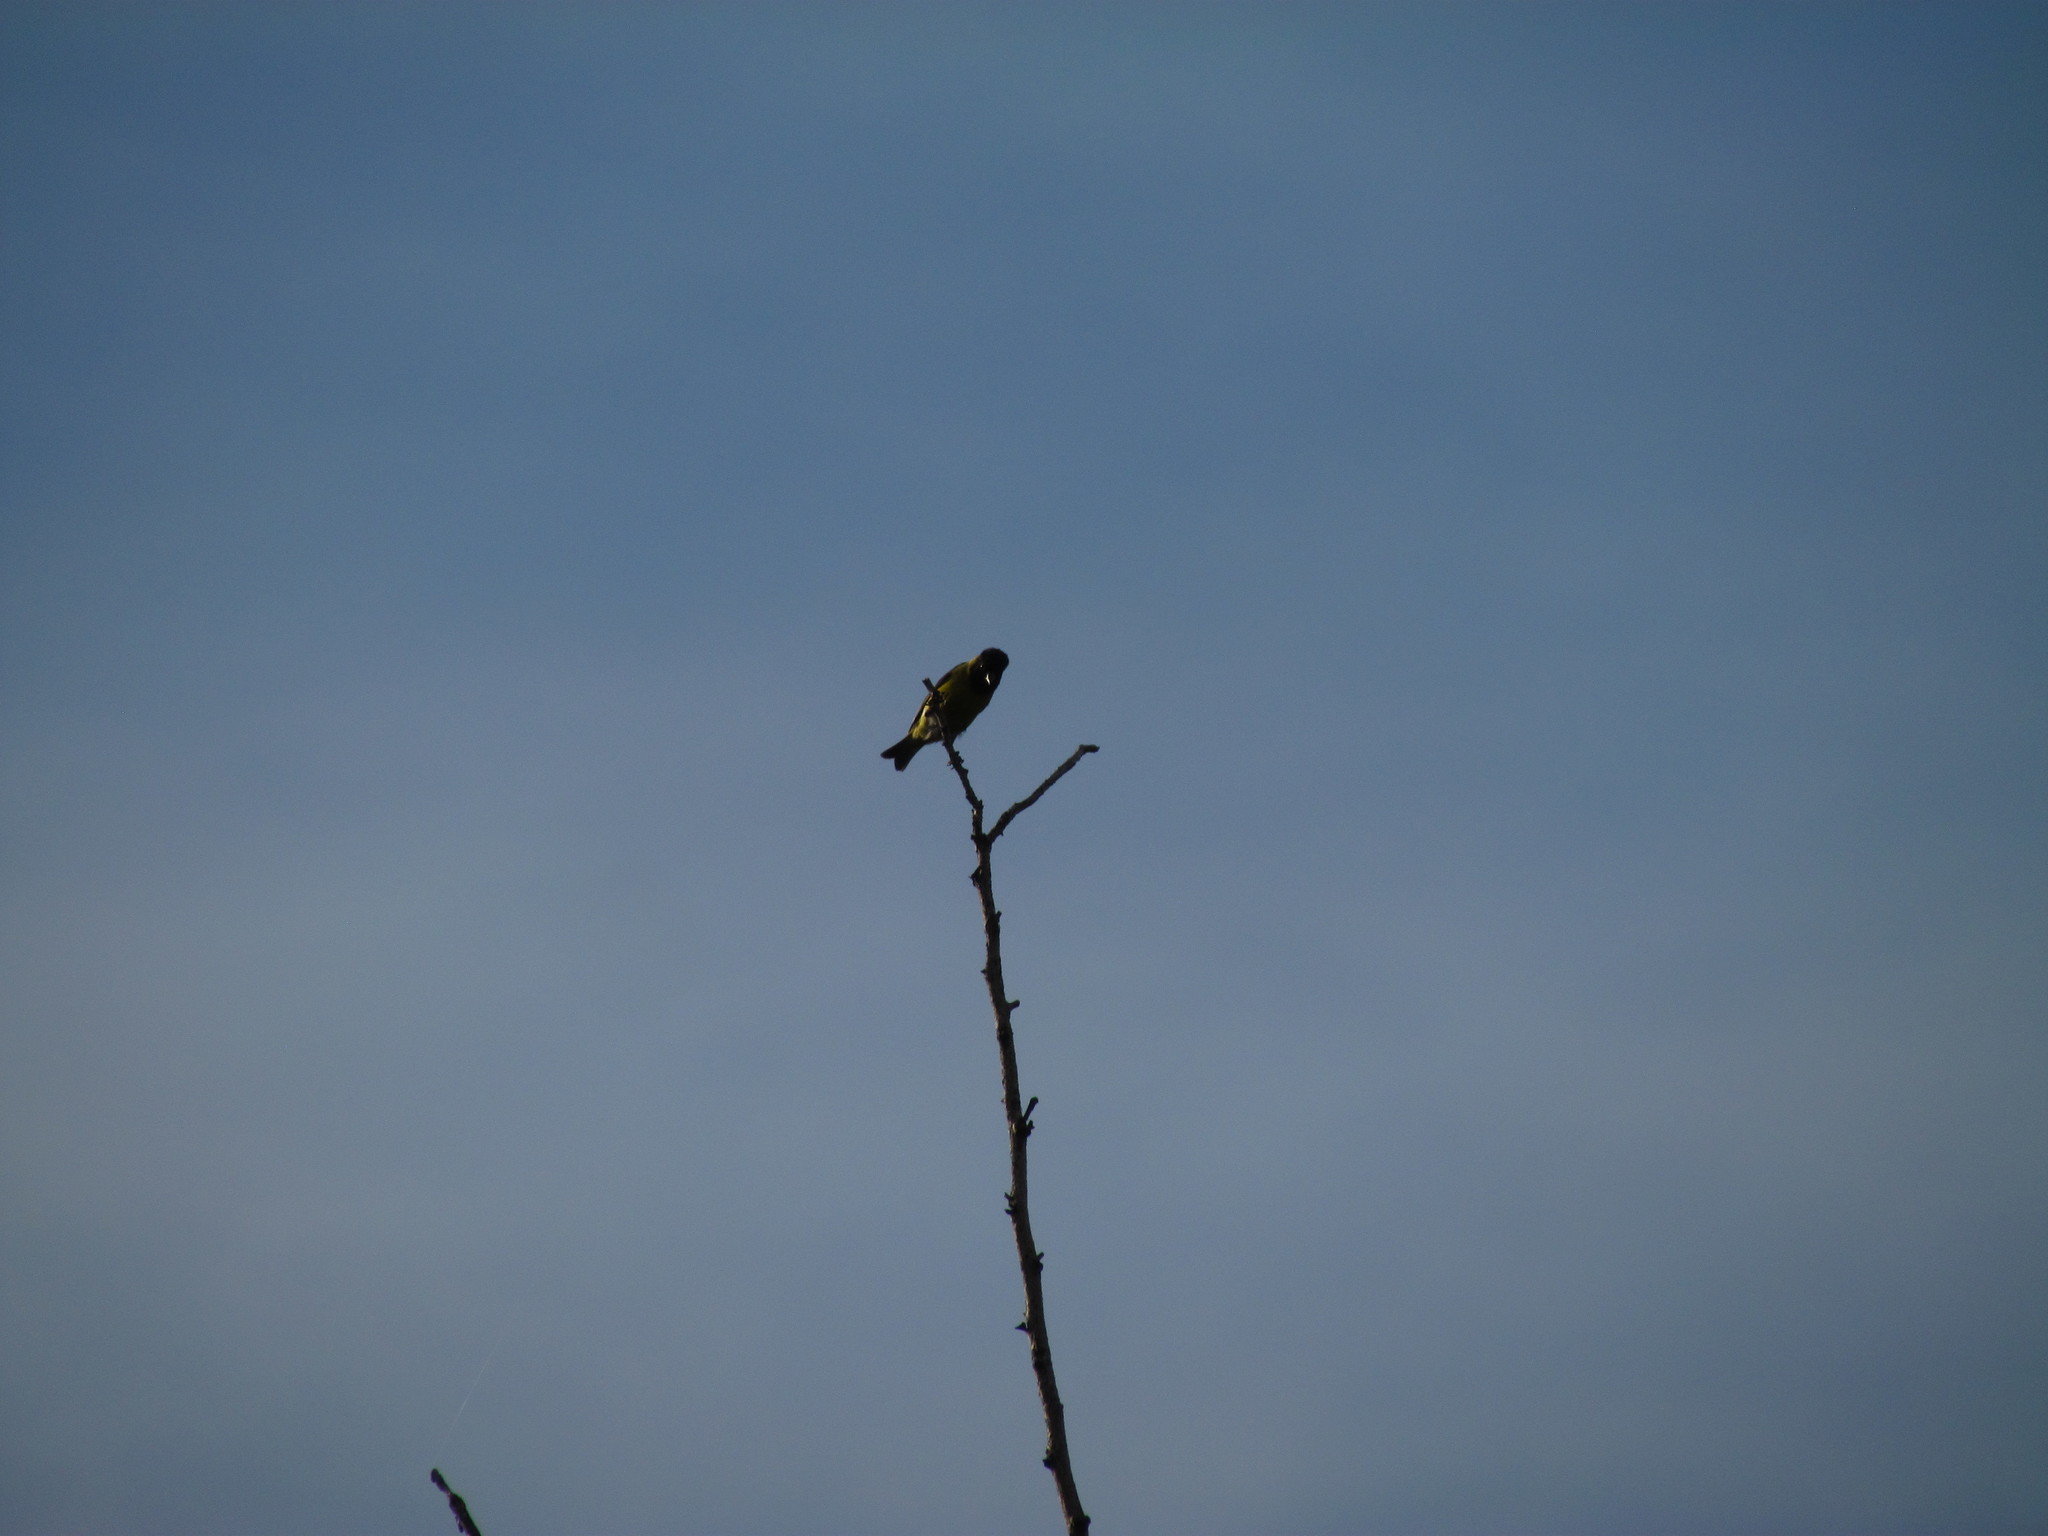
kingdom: Animalia
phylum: Chordata
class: Aves
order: Passeriformes
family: Fringillidae
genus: Spinus
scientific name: Spinus magellanicus
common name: Hooded siskin
